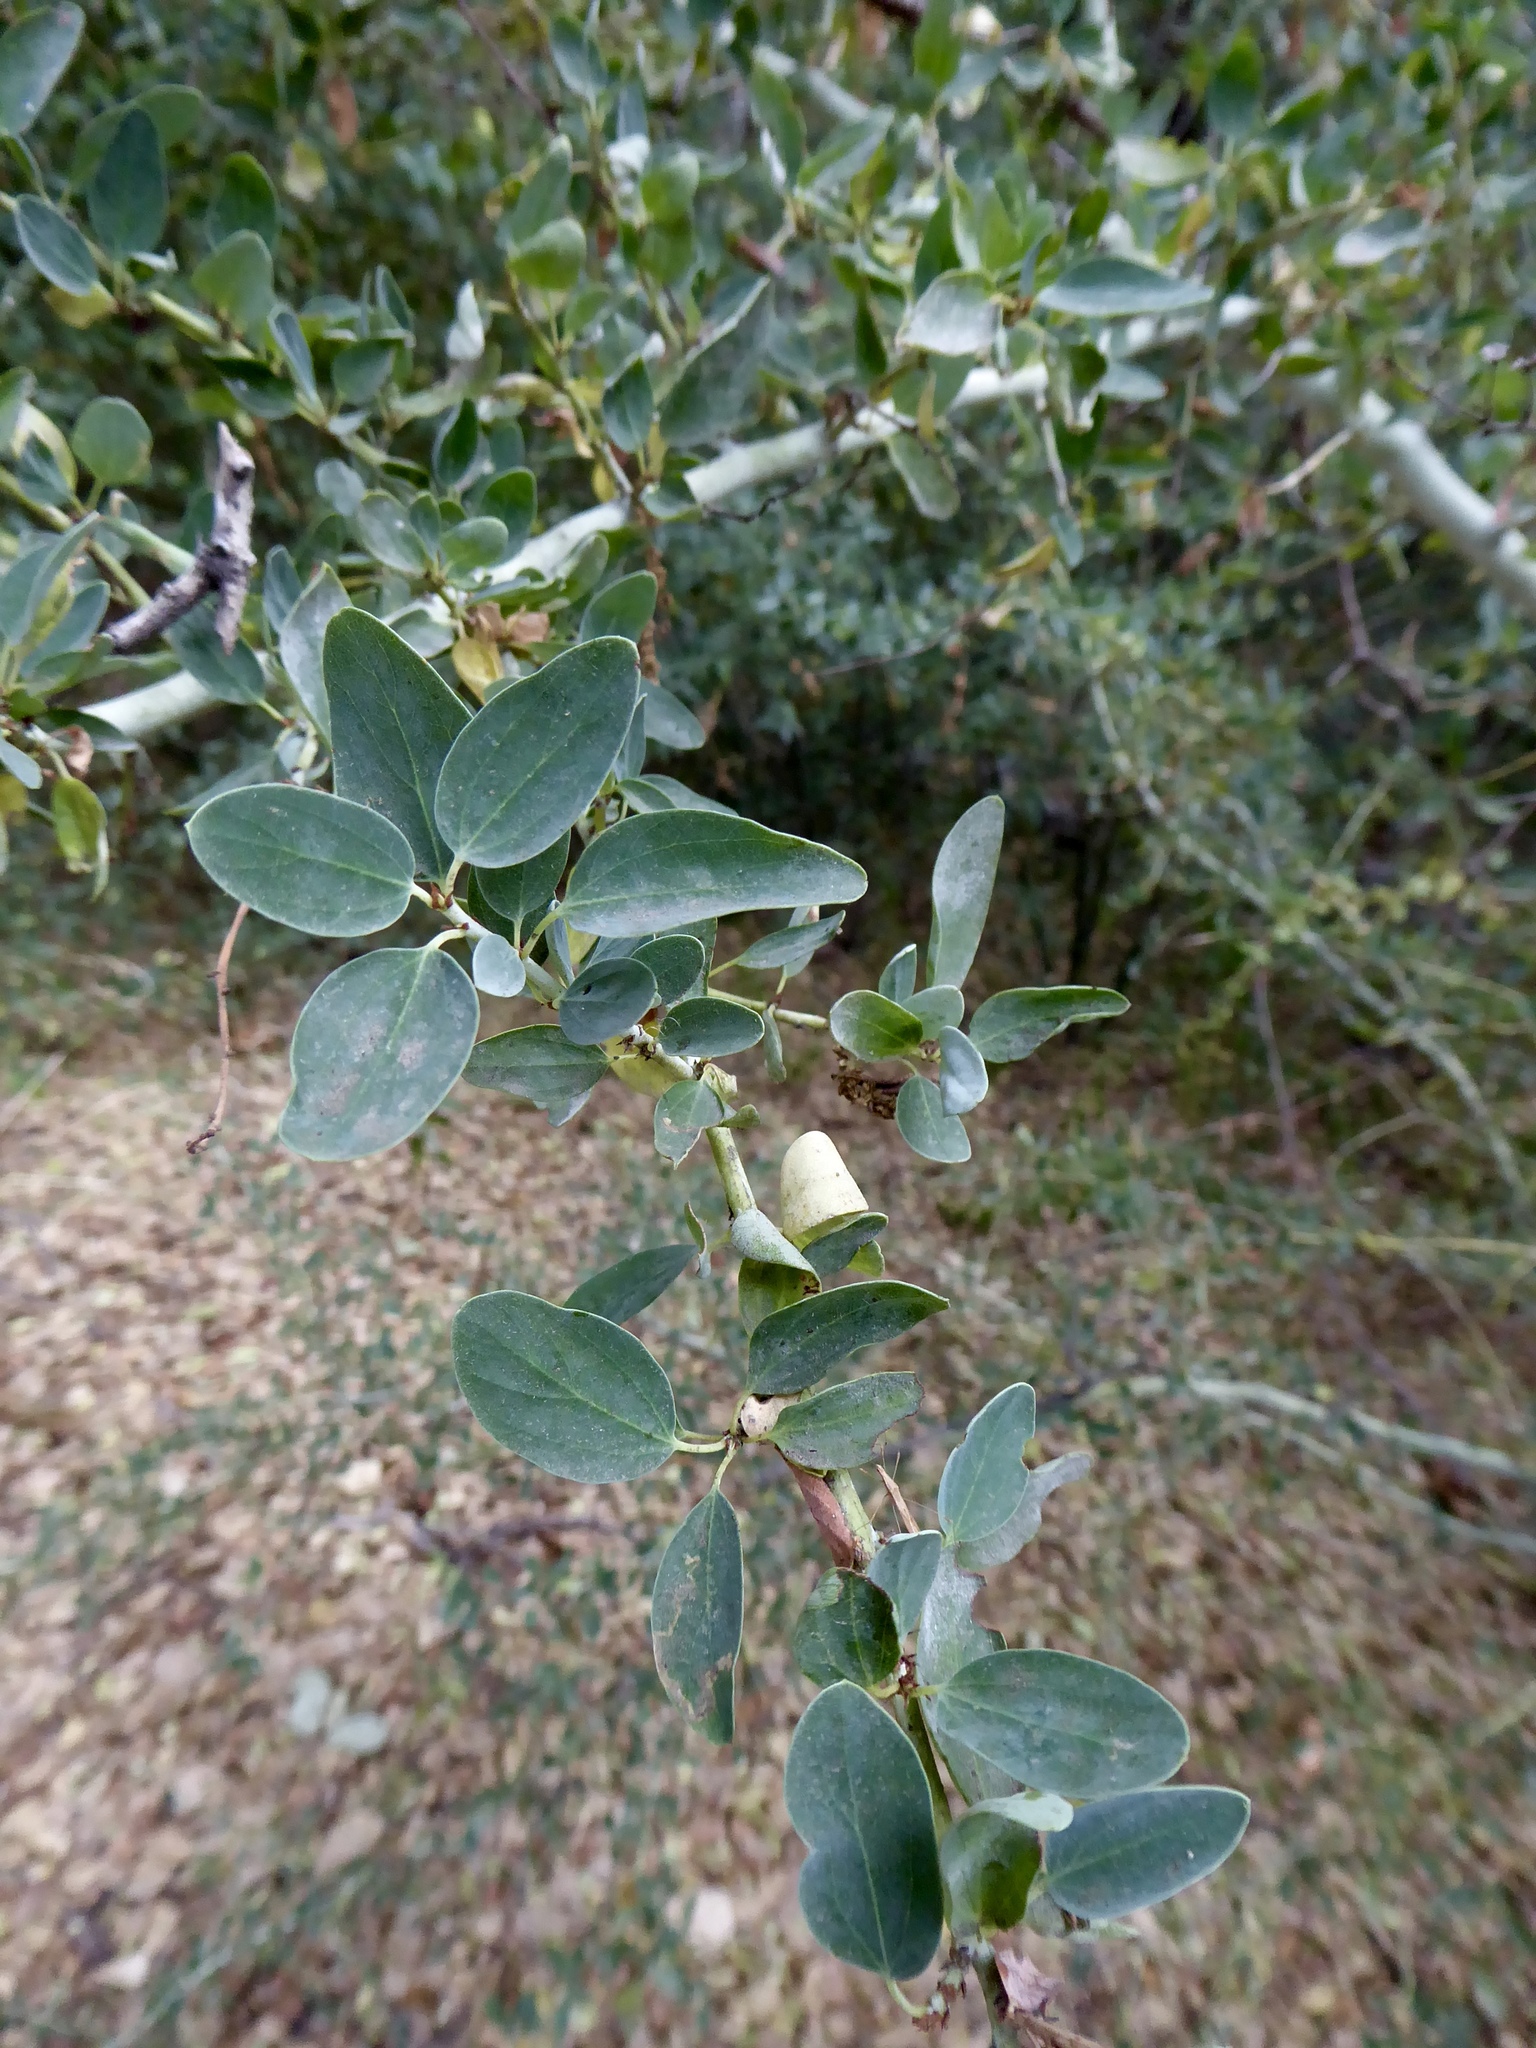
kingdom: Plantae
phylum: Tracheophyta
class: Magnoliopsida
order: Rosales
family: Rhamnaceae
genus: Ceanothus
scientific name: Ceanothus leucodermis
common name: Chaparral whitethorn
